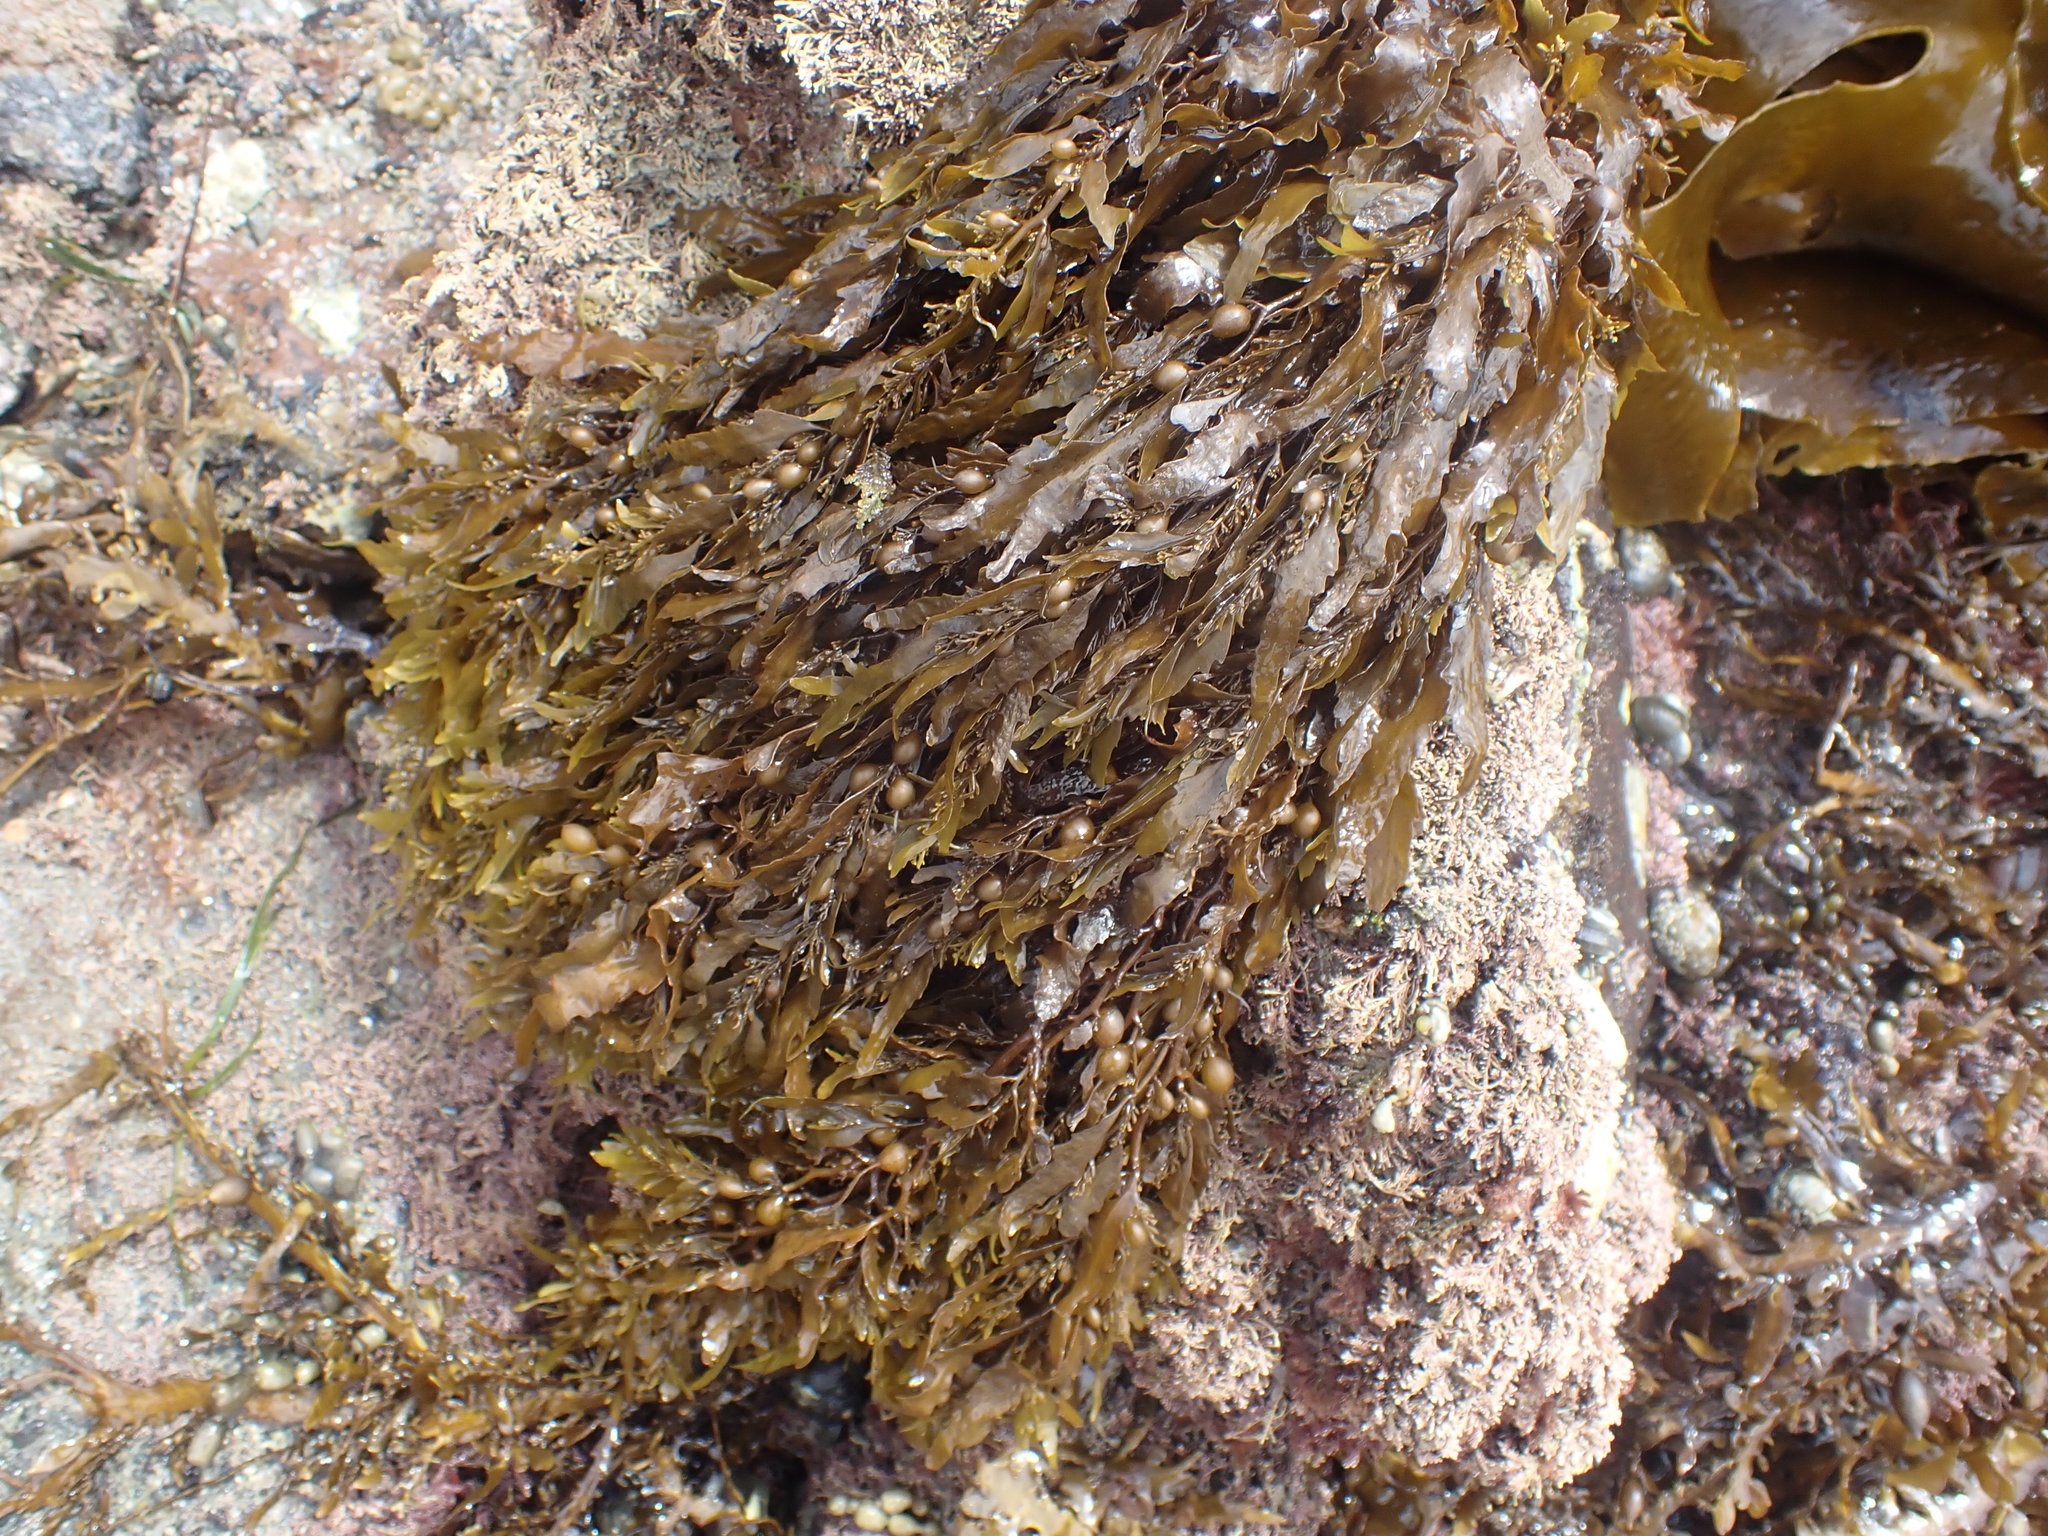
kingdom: Chromista
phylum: Ochrophyta
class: Phaeophyceae
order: Fucales
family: Sargassaceae
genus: Sargassum
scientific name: Sargassum sinclairii
